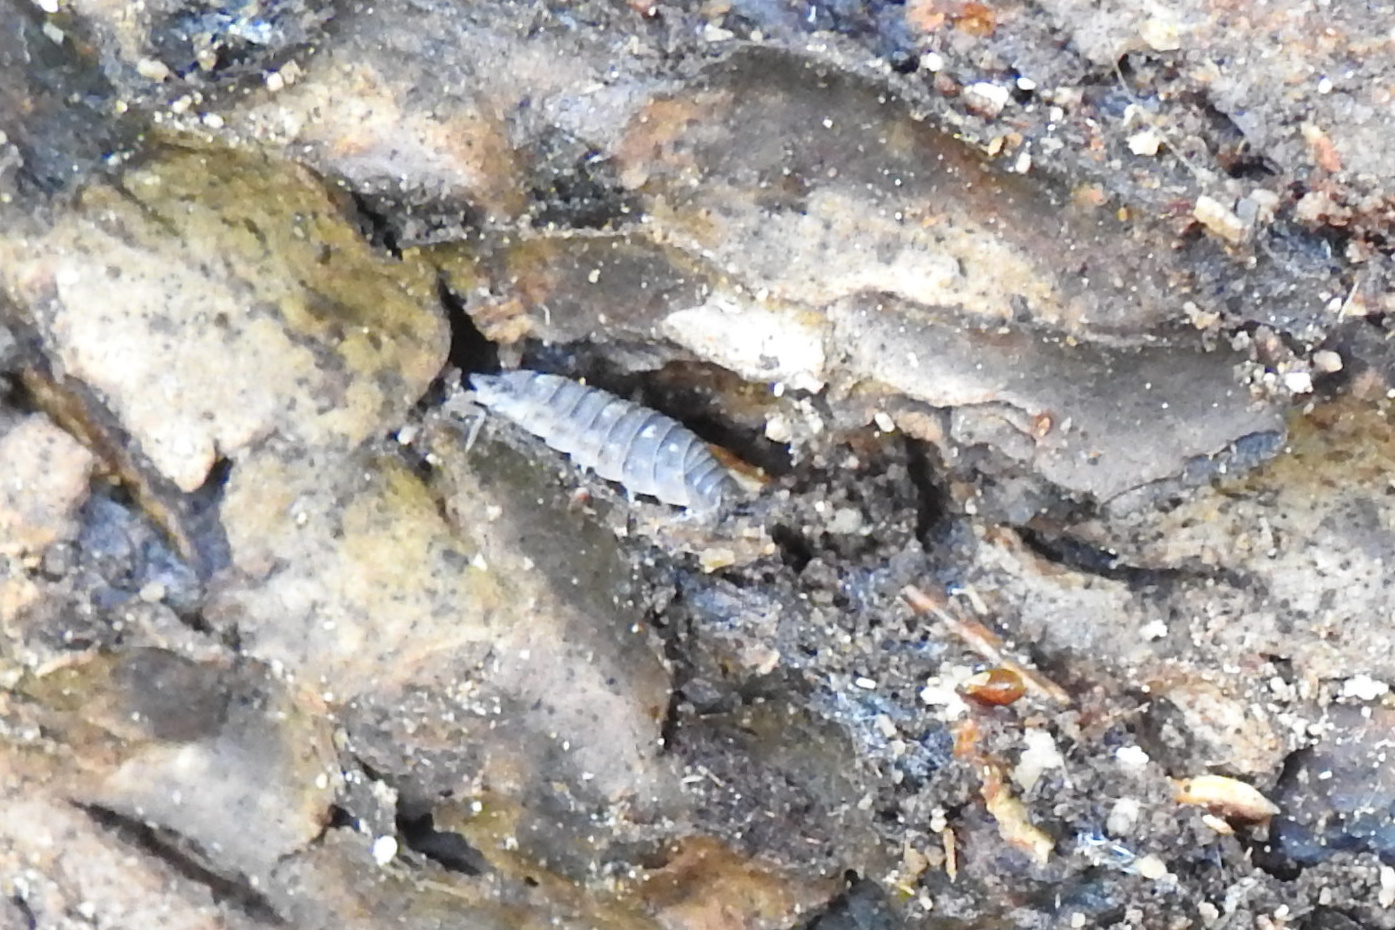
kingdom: Animalia
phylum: Arthropoda
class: Malacostraca
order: Isopoda
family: Oniscidae
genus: Oniscus
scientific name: Oniscus asellus
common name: Common shiny woodlouse
